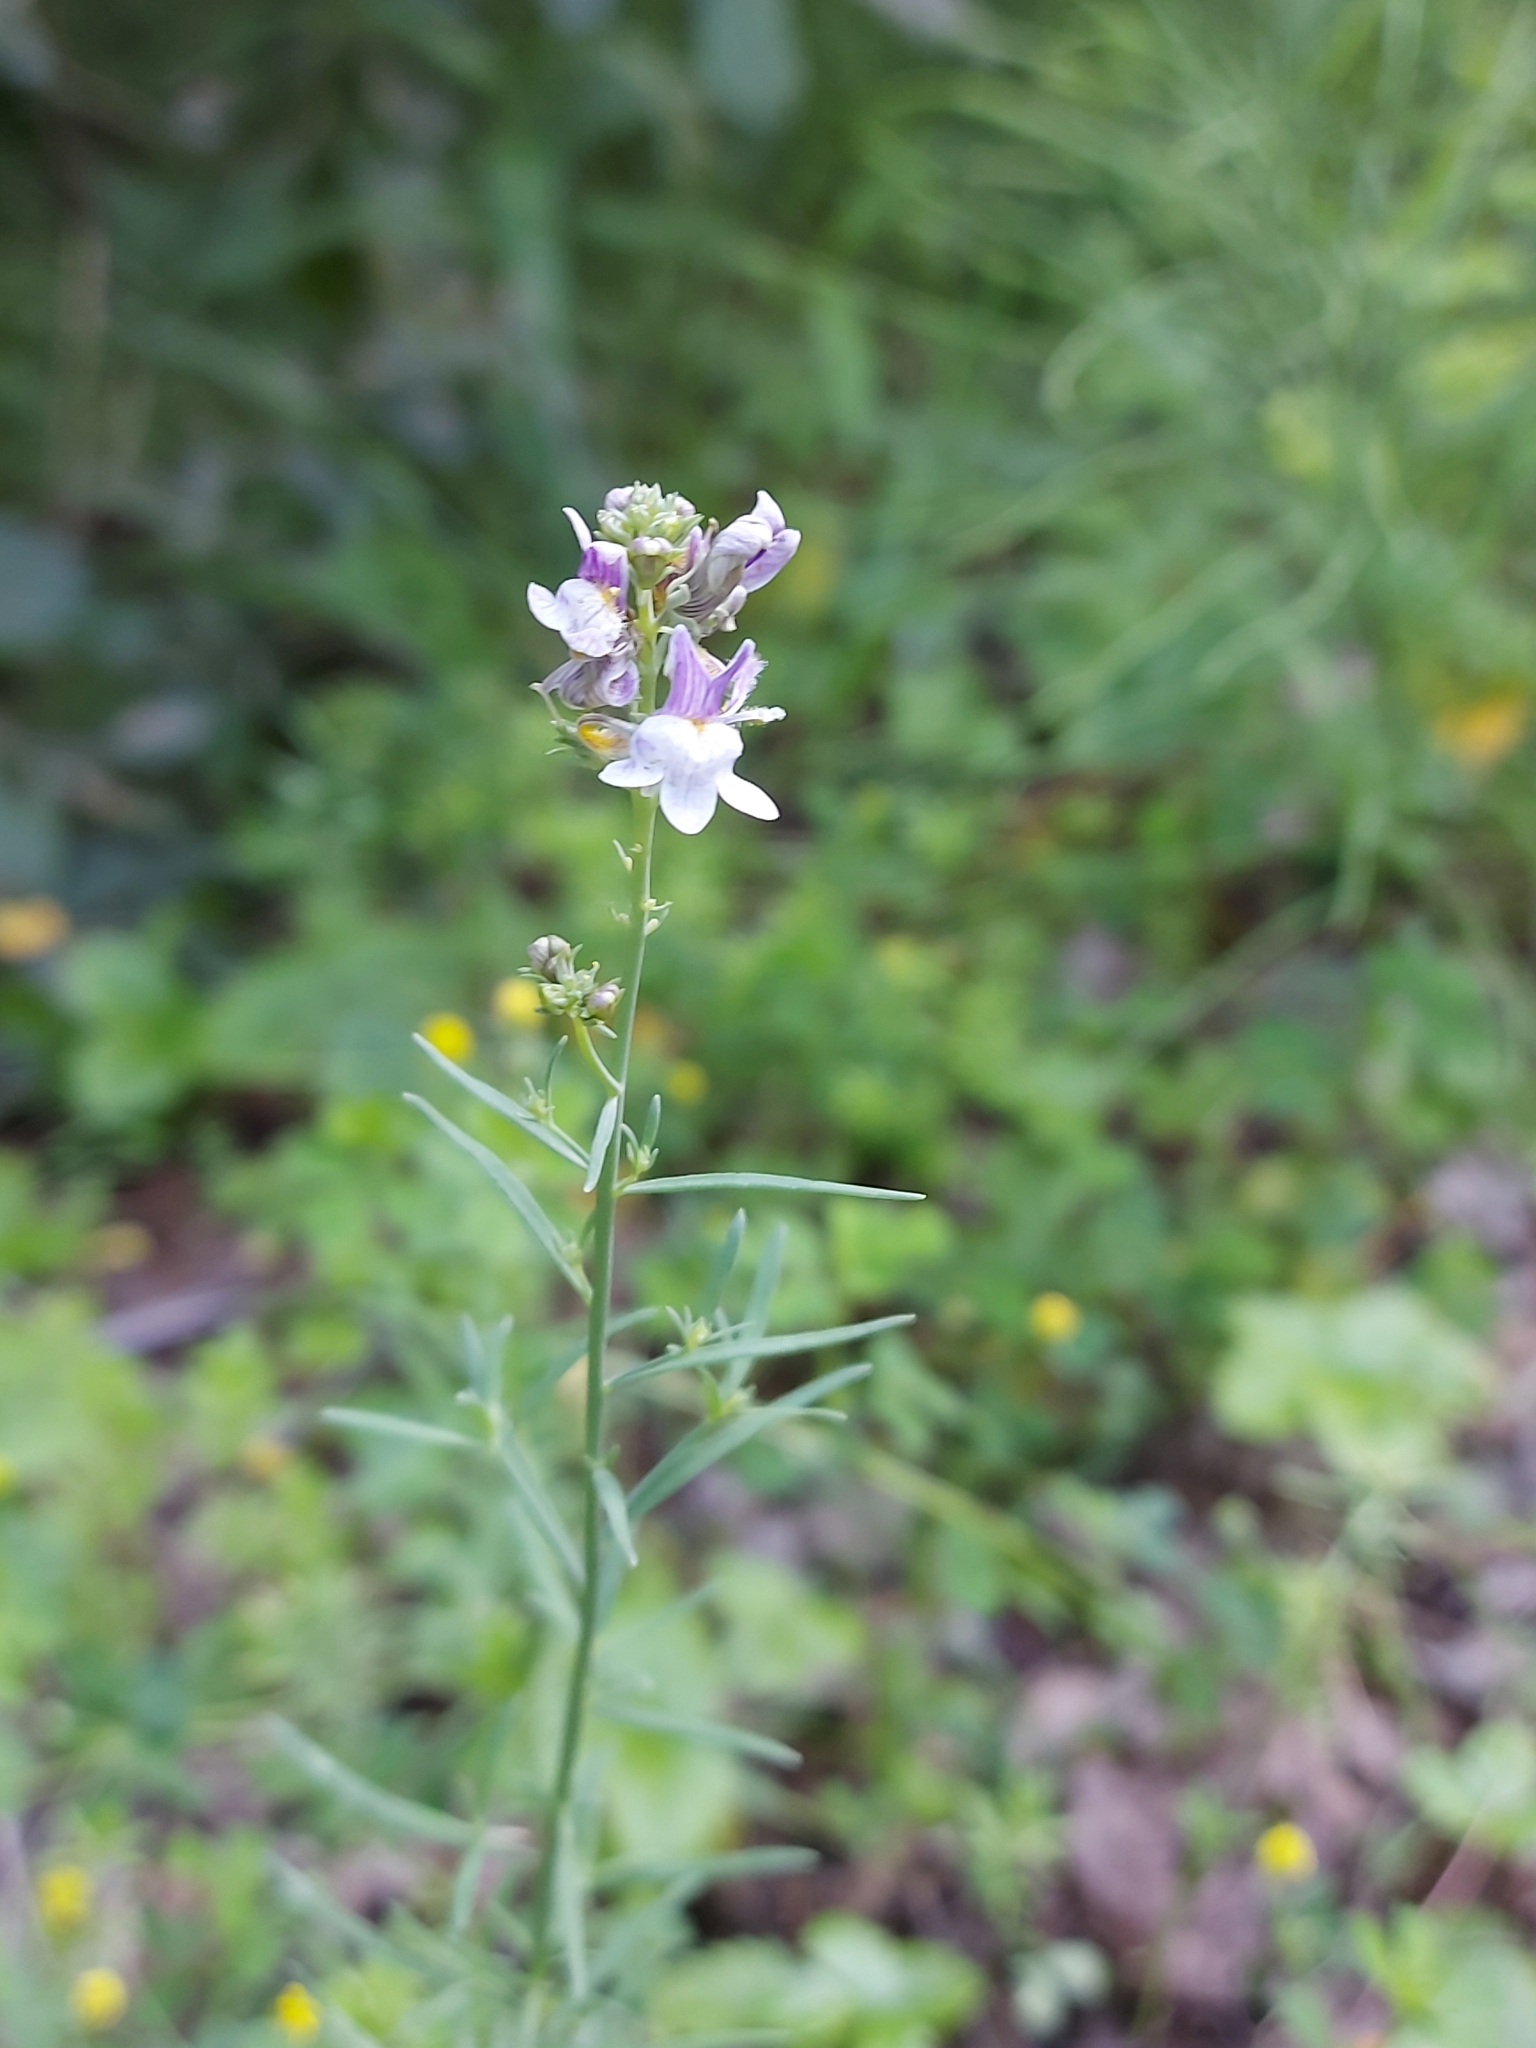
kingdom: Plantae
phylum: Tracheophyta
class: Magnoliopsida
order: Lamiales
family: Plantaginaceae
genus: Linaria
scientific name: Linaria repens
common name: Pale toadflax
